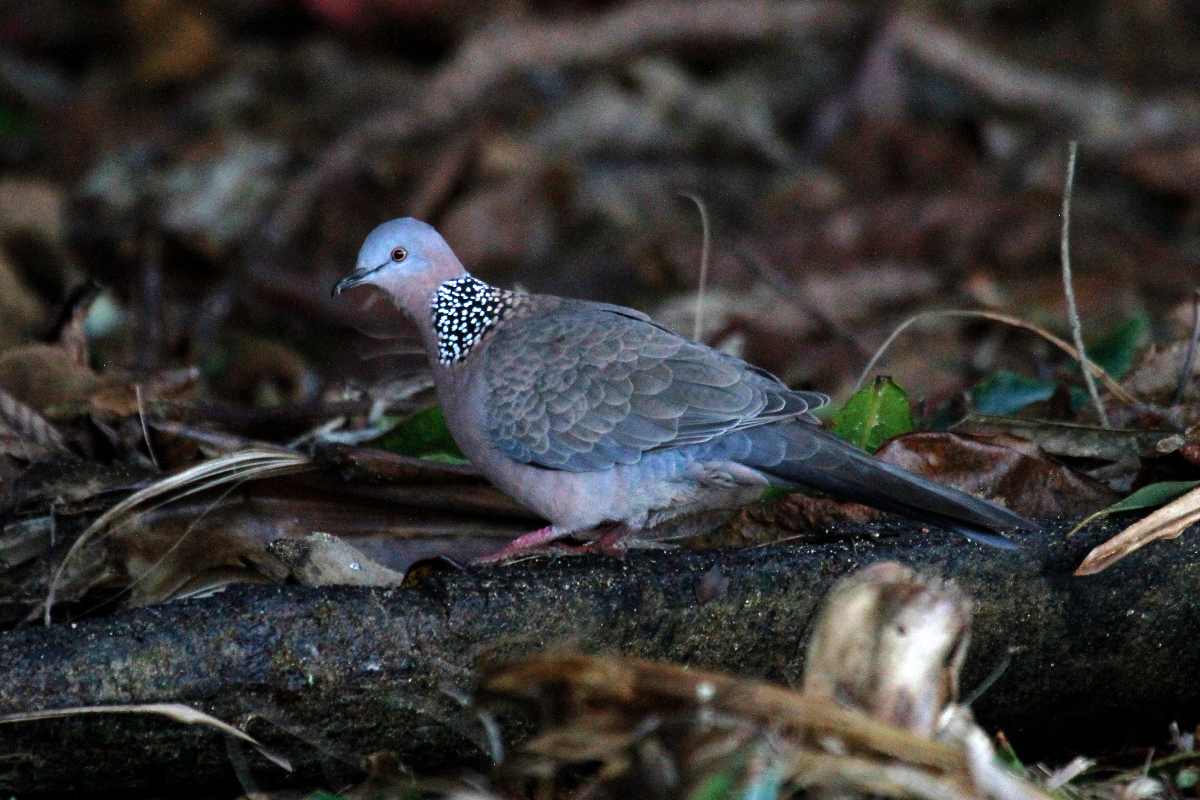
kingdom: Animalia
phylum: Chordata
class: Aves
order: Columbiformes
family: Columbidae
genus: Spilopelia
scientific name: Spilopelia chinensis
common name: Spotted dove
